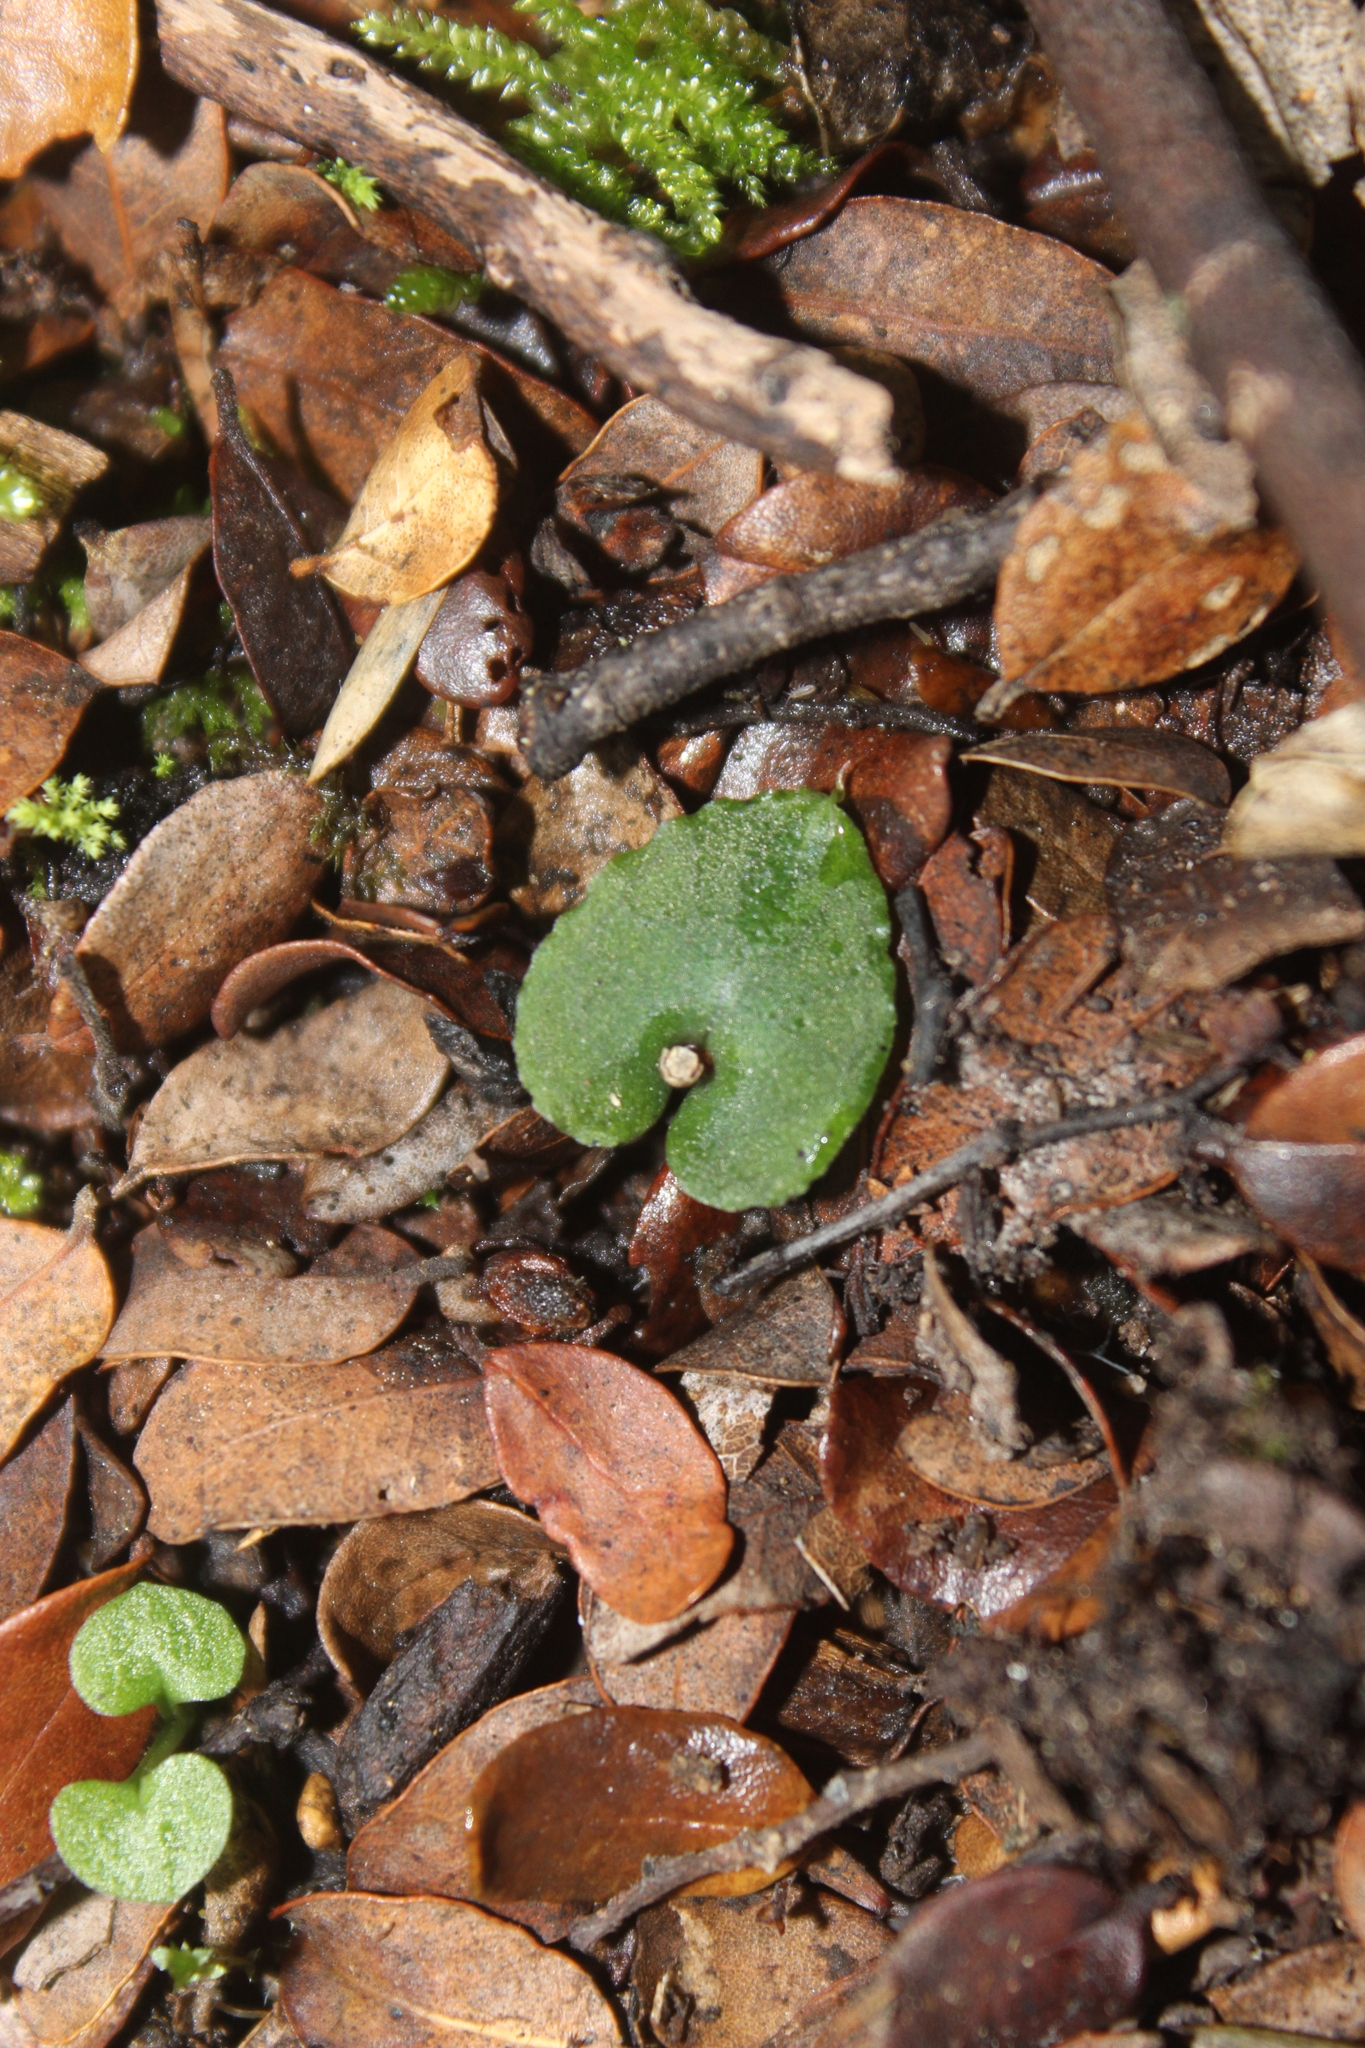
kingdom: Plantae
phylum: Tracheophyta
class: Liliopsida
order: Asparagales
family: Orchidaceae
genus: Corybas
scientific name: Corybas cheesemanii
